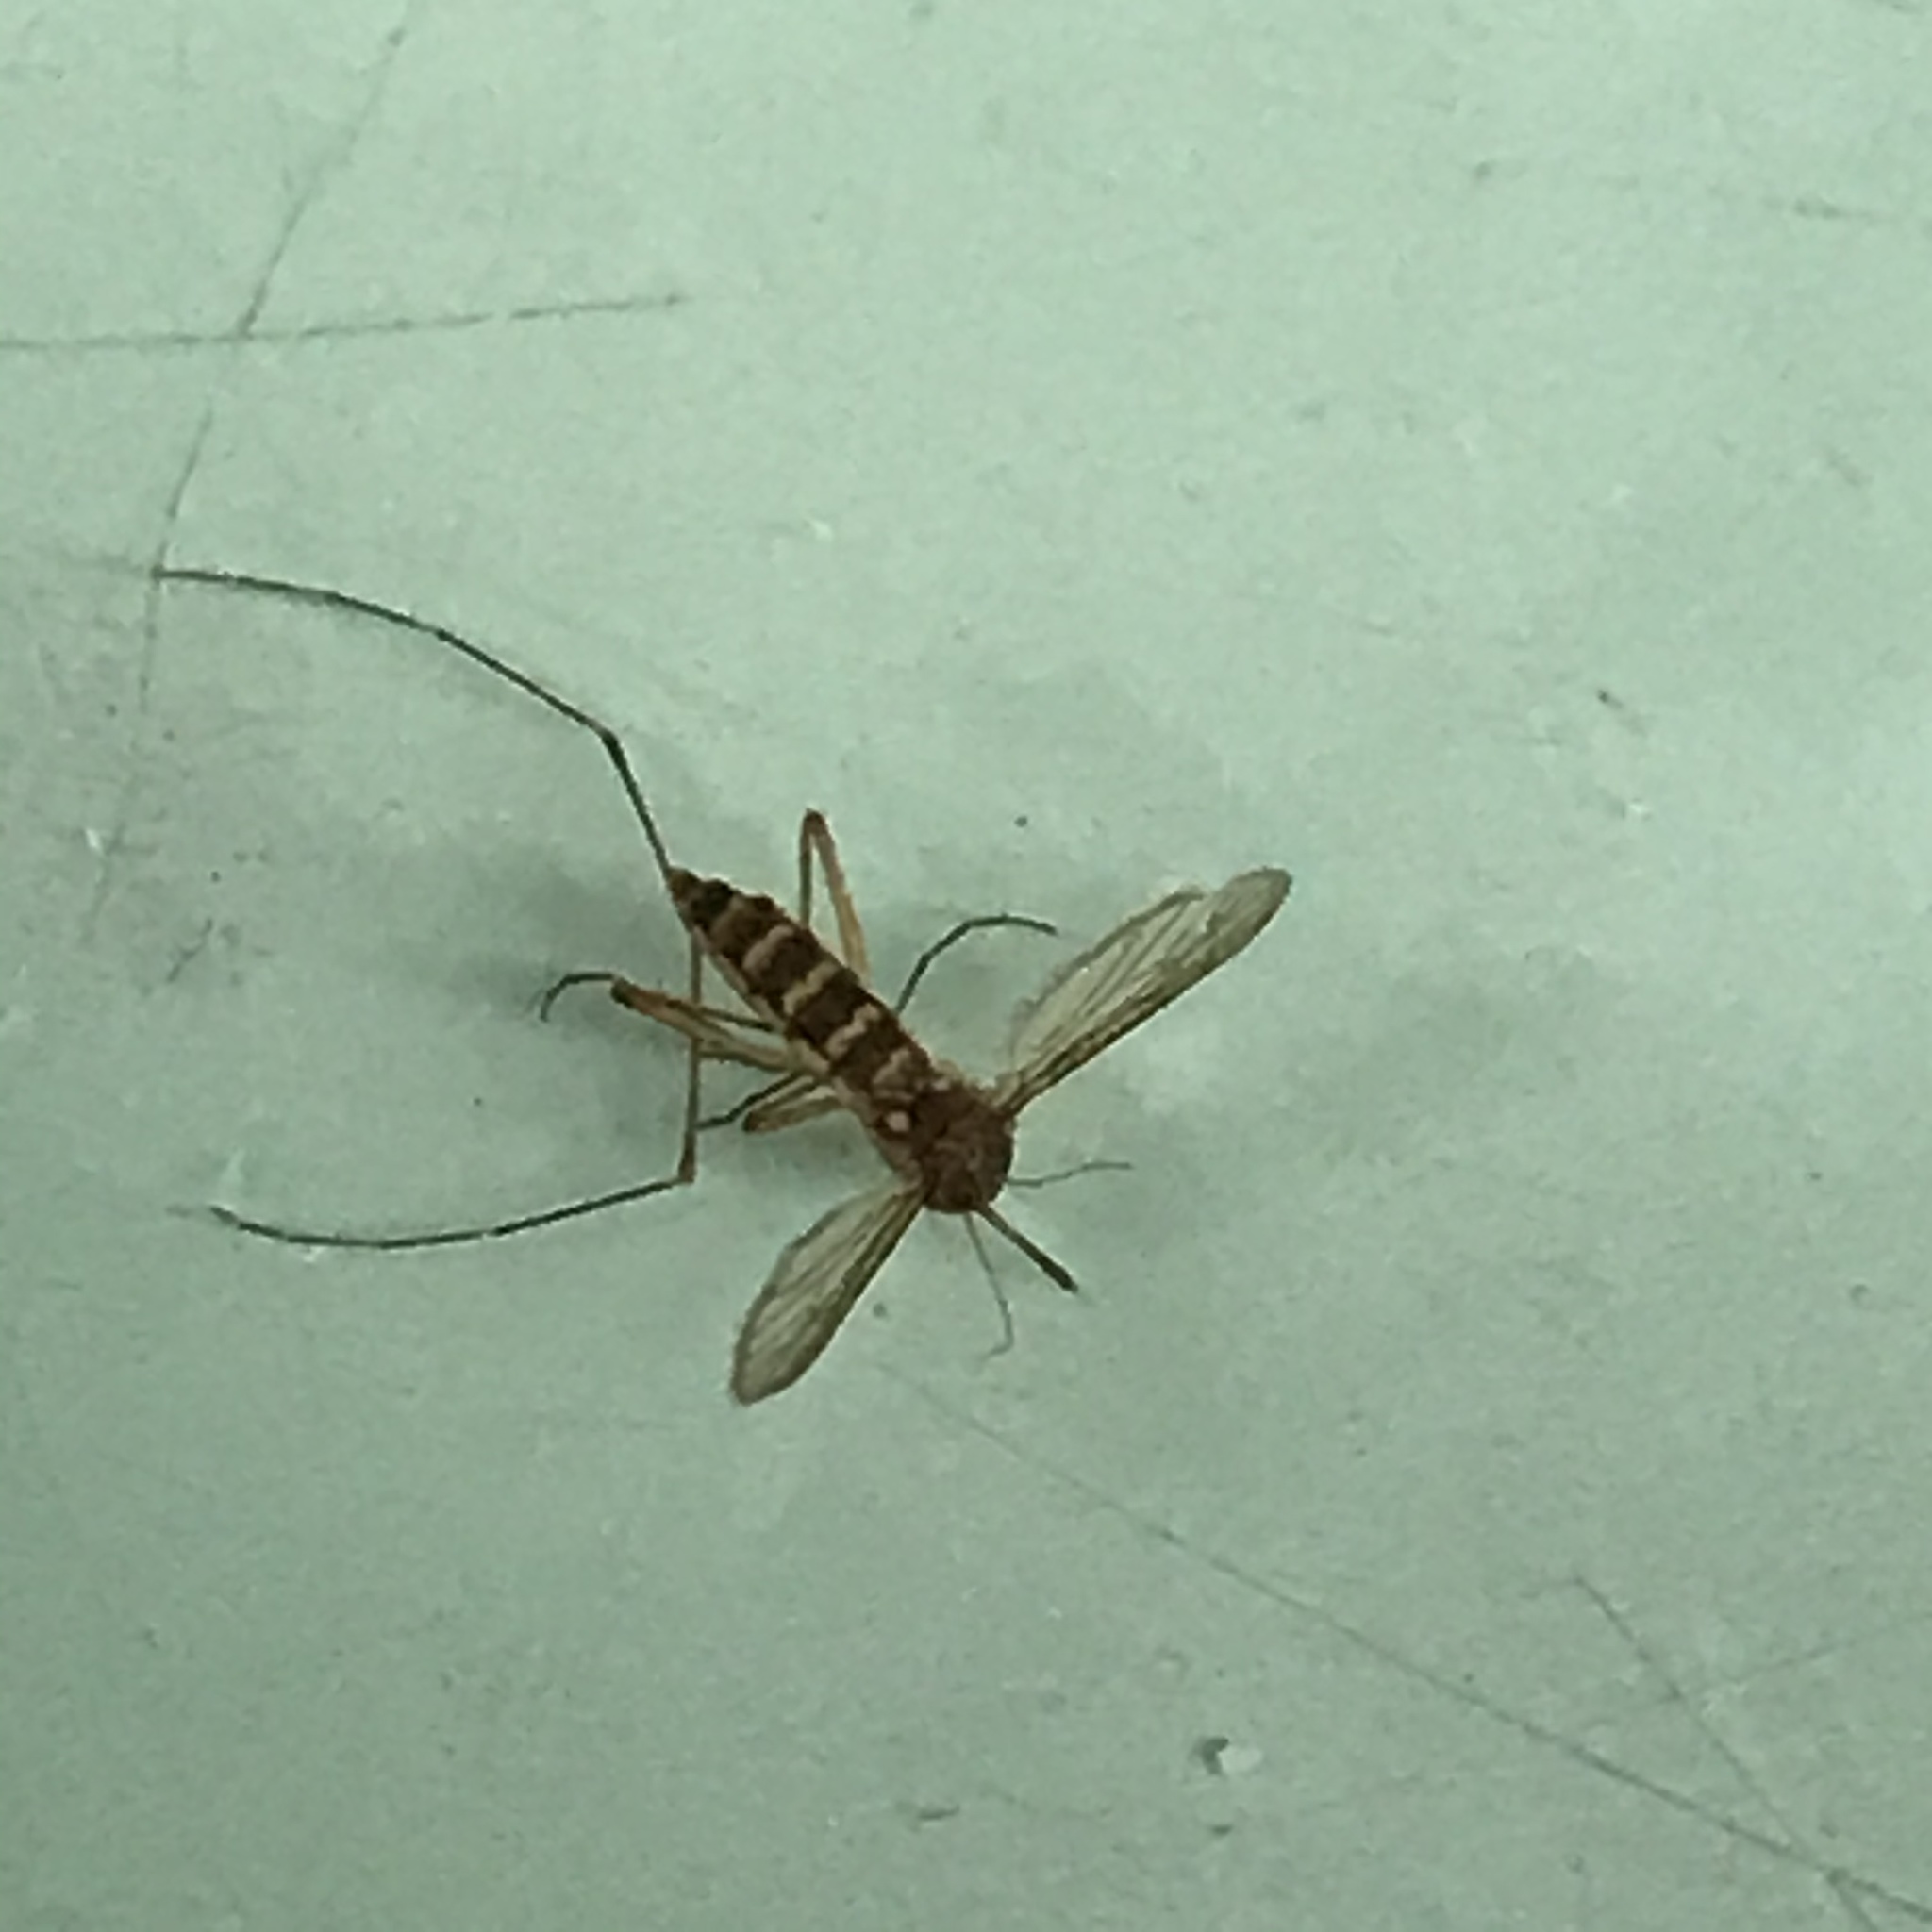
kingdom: Animalia
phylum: Arthropoda
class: Insecta
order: Diptera
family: Culicidae
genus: Aedes
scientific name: Aedes vexans
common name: Inland floodwater mosquito
